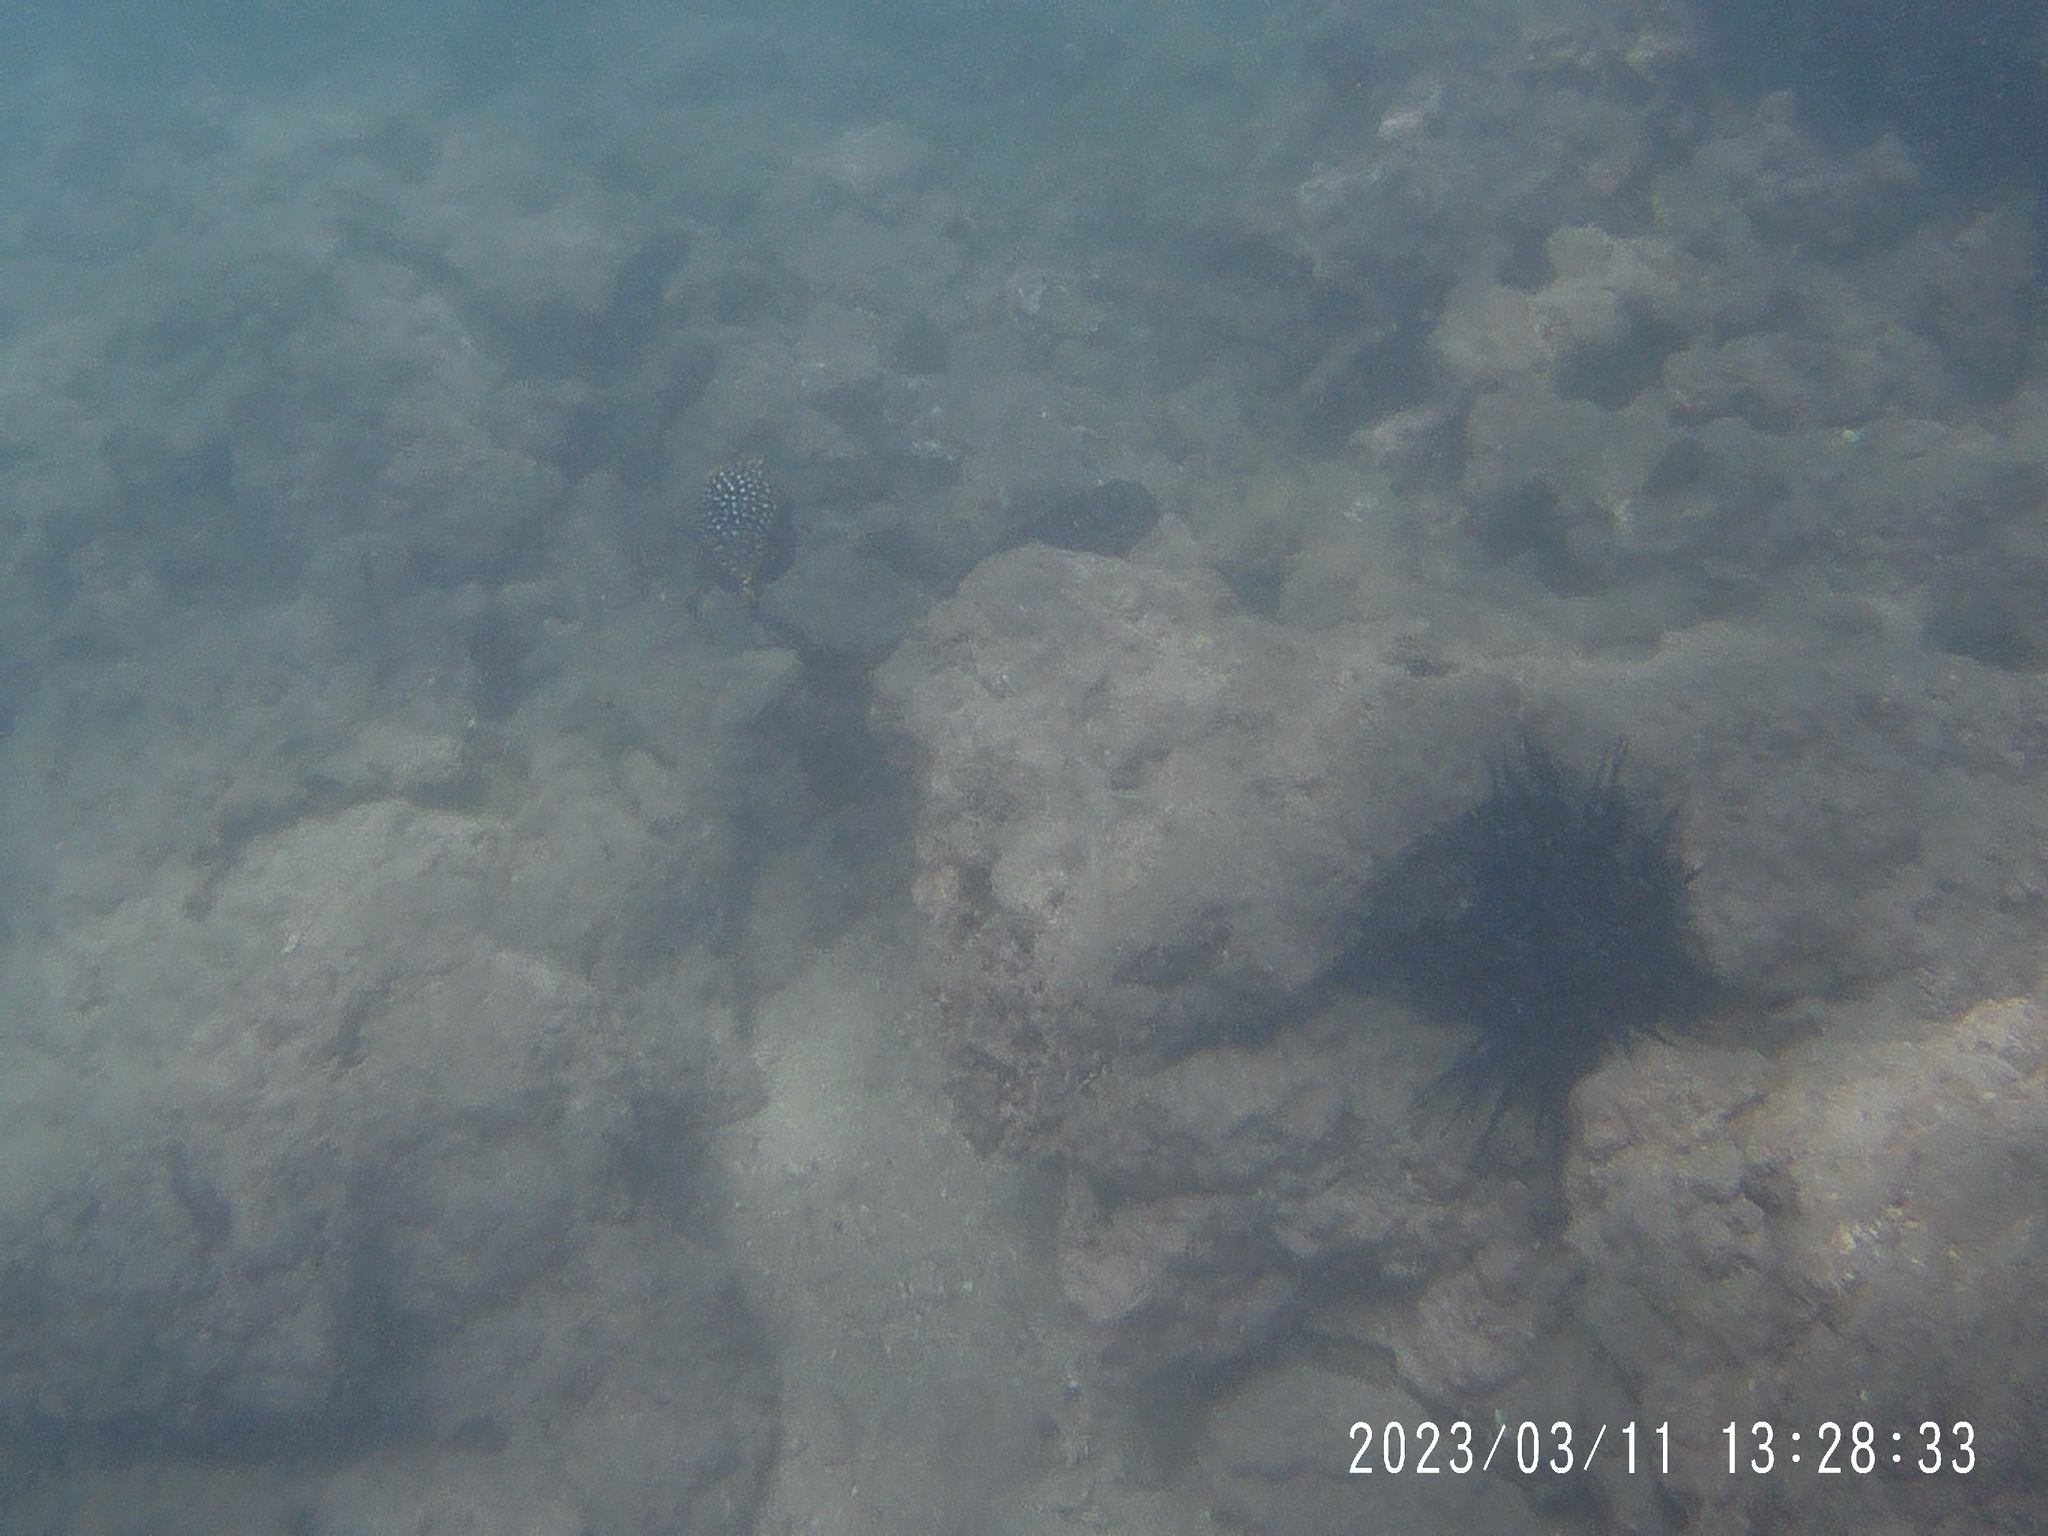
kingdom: Animalia
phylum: Chordata
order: Tetraodontiformes
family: Ostraciidae
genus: Ostracion
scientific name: Ostracion meleagris
